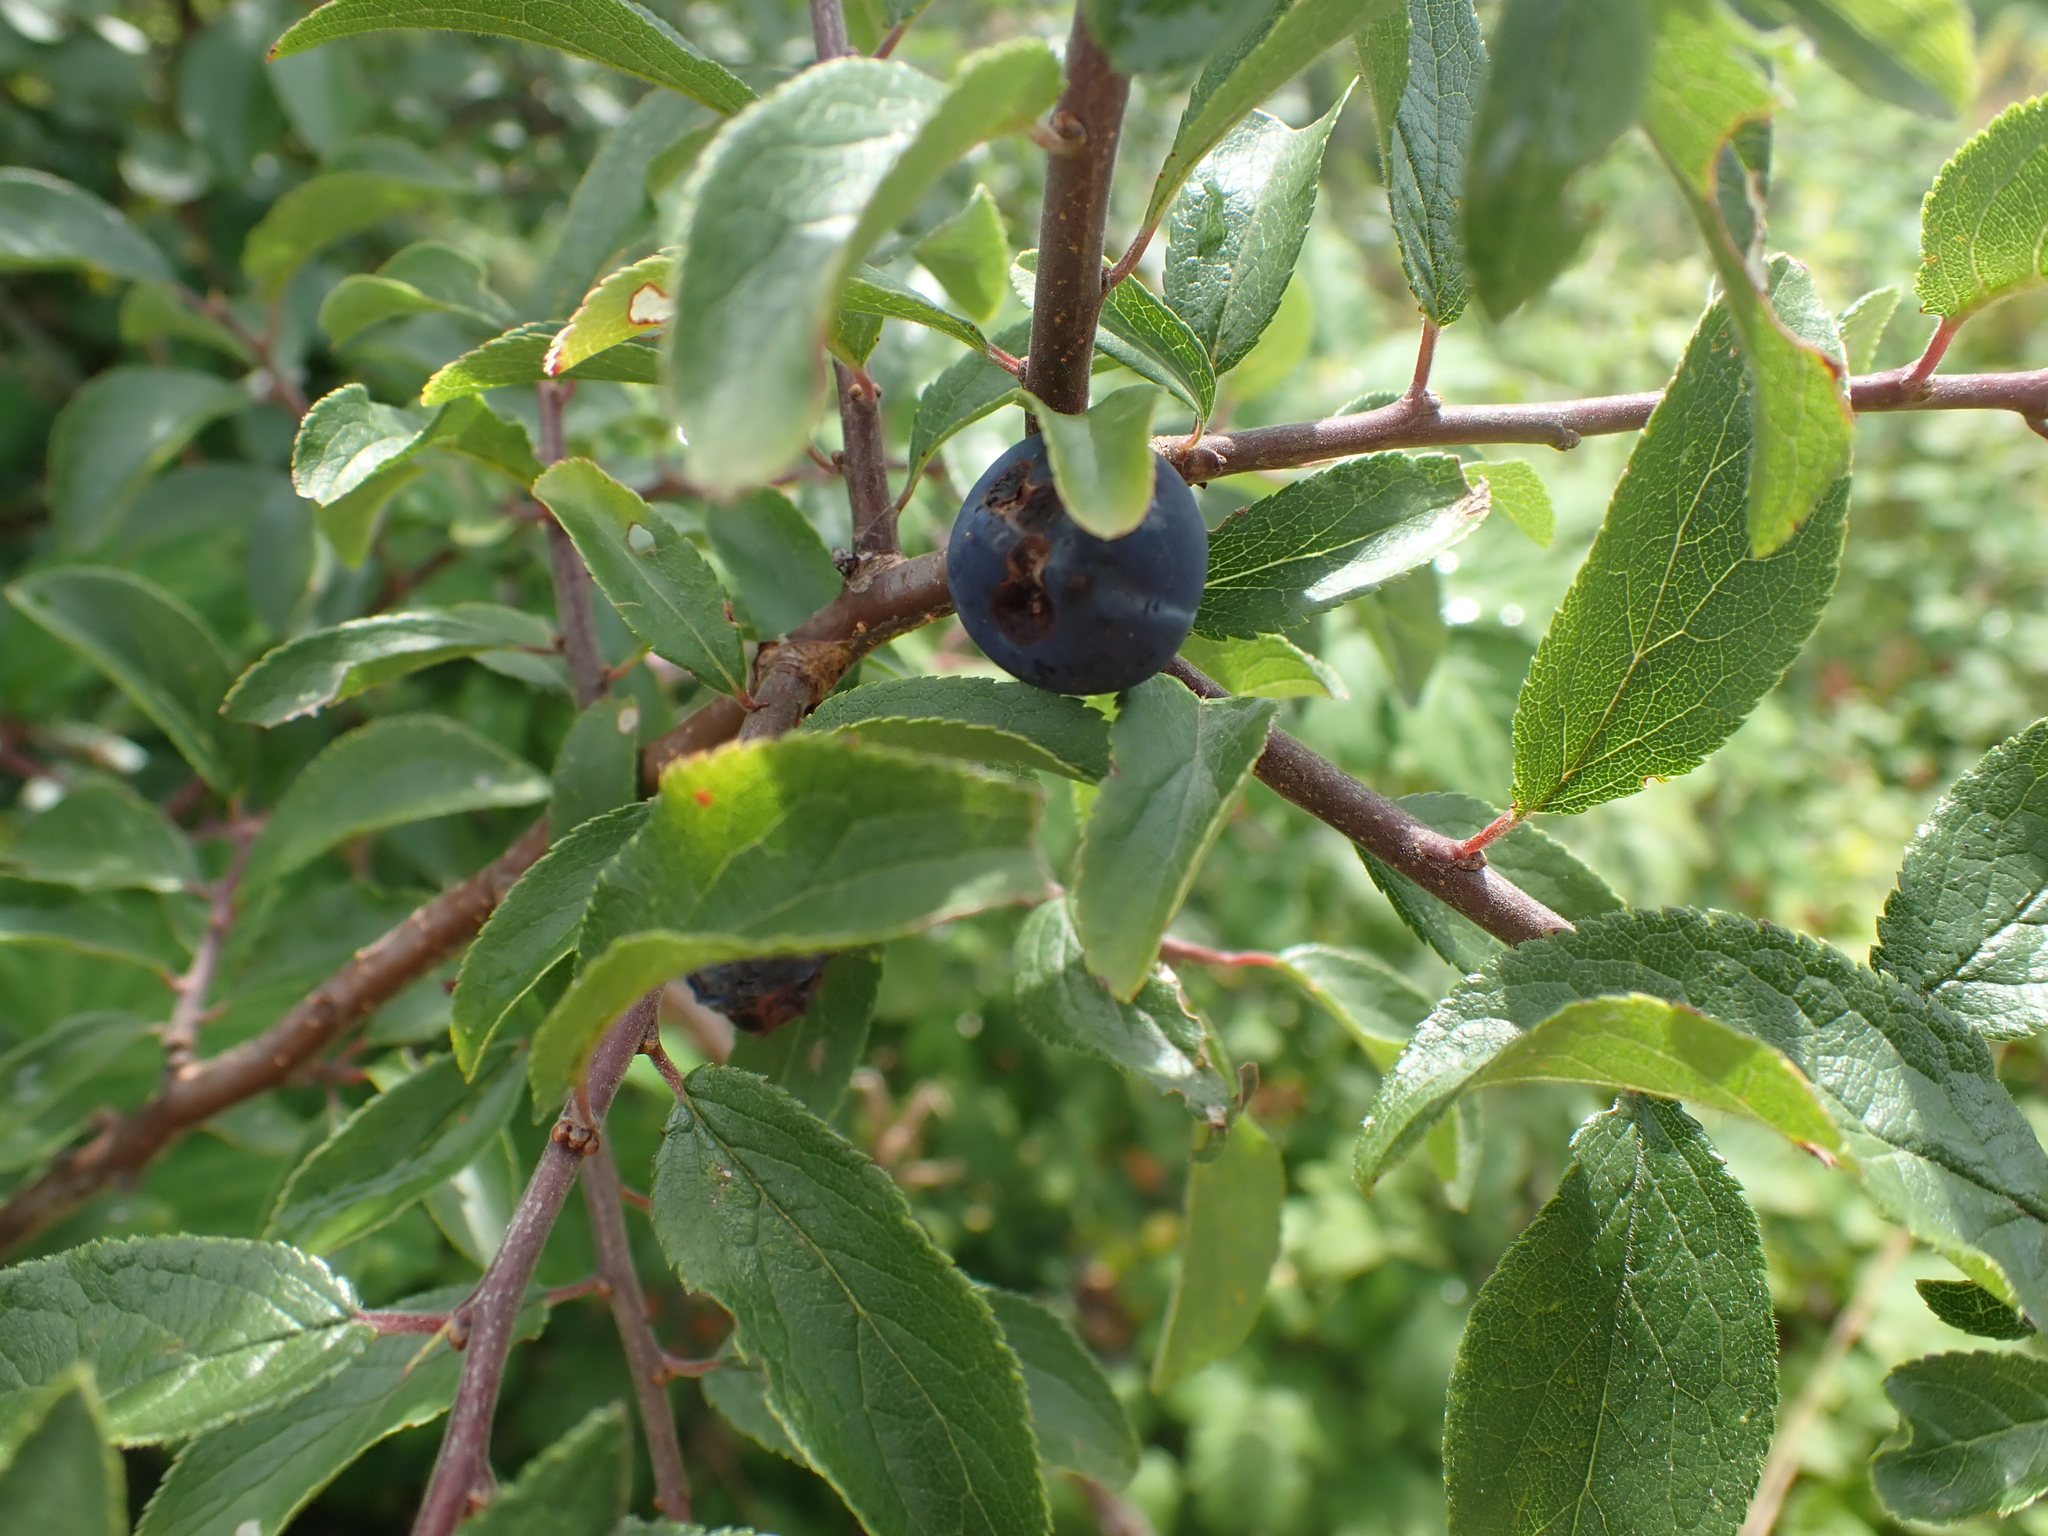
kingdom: Plantae
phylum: Tracheophyta
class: Magnoliopsida
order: Rosales
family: Rosaceae
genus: Prunus
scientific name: Prunus spinosa
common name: Blackthorn
